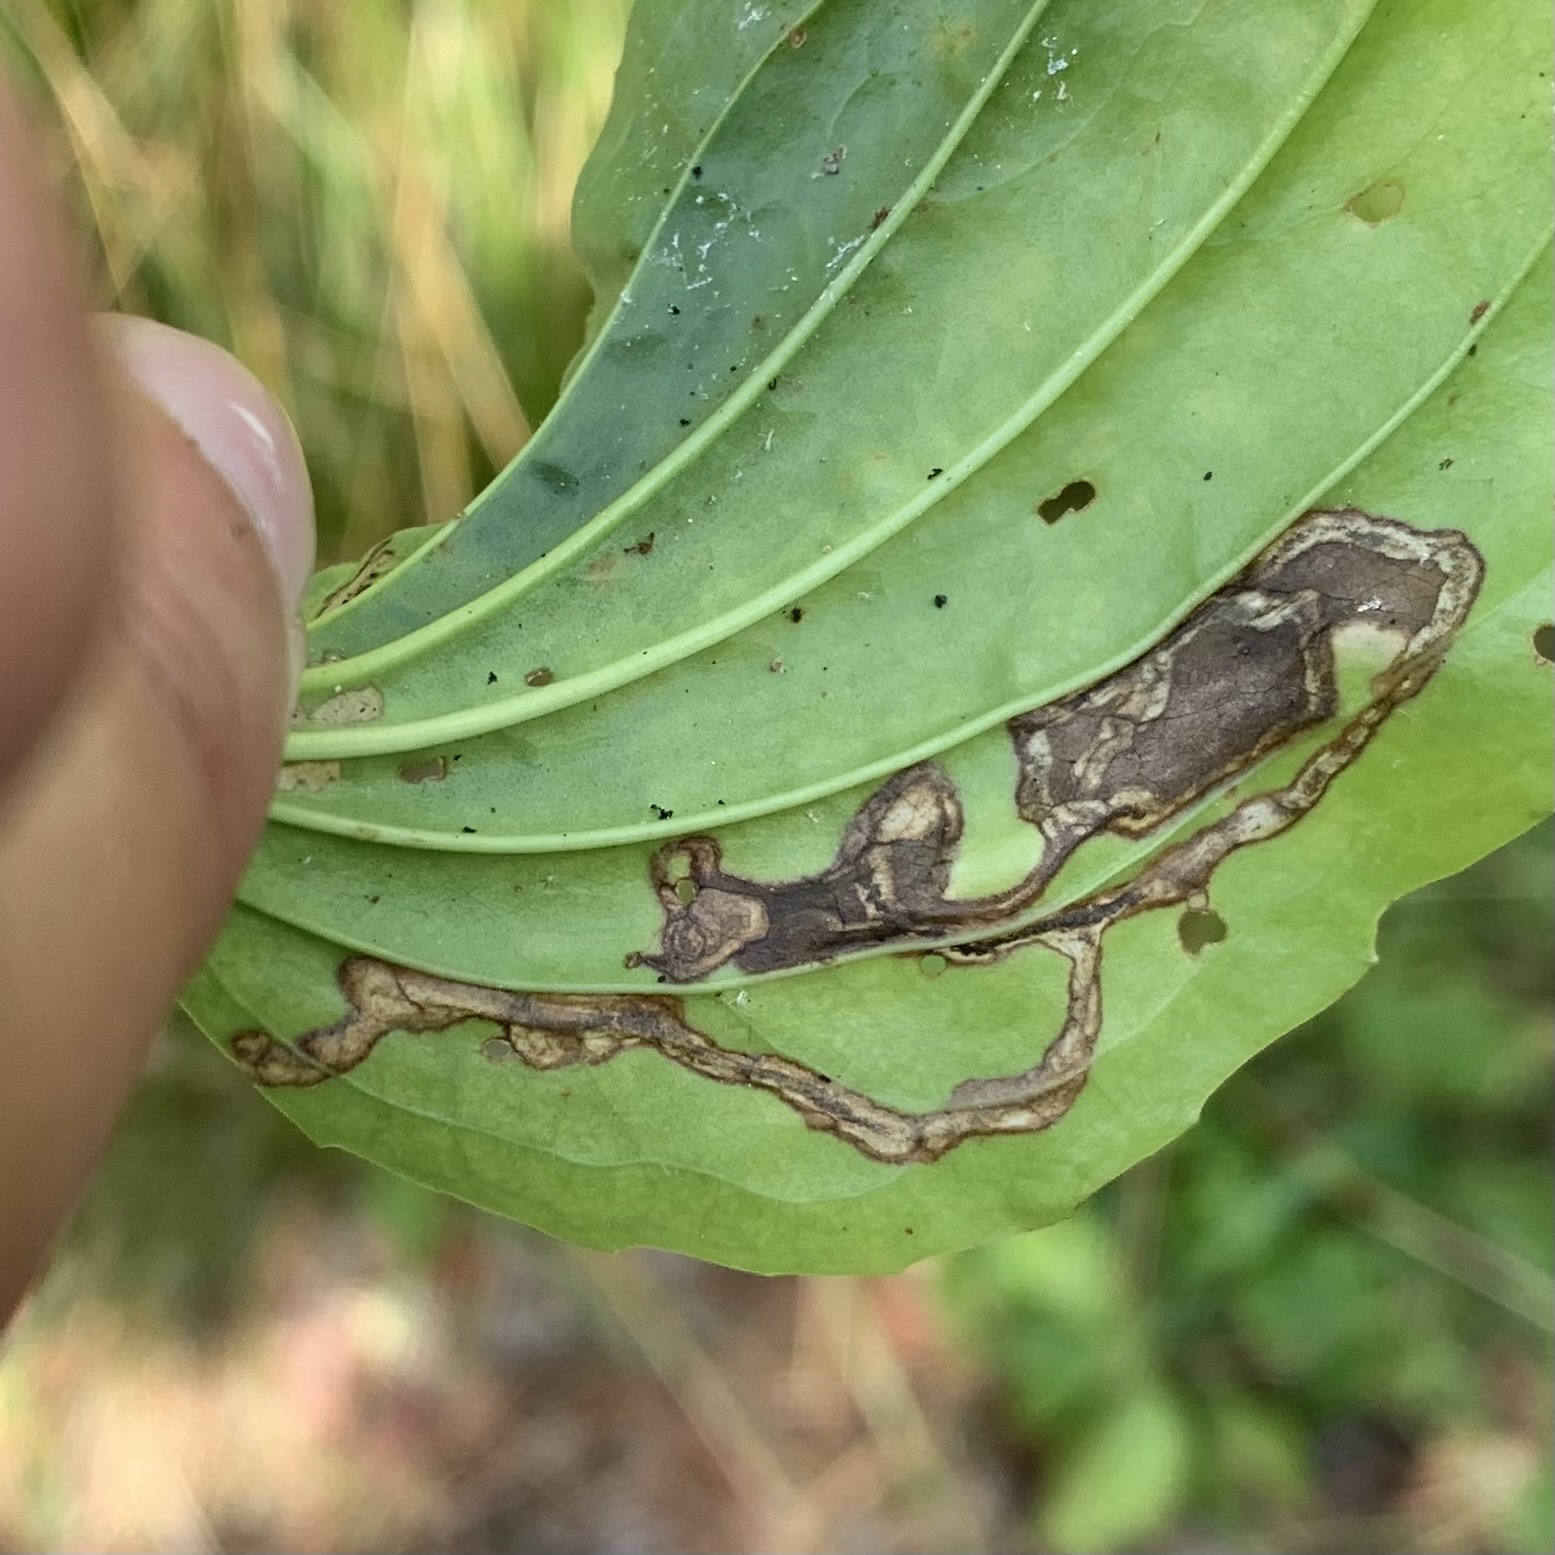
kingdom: Animalia
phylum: Arthropoda
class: Insecta
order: Coleoptera
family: Chrysomelidae
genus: Dibolia
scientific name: Dibolia borealis
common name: Northern plantain flea beetle
